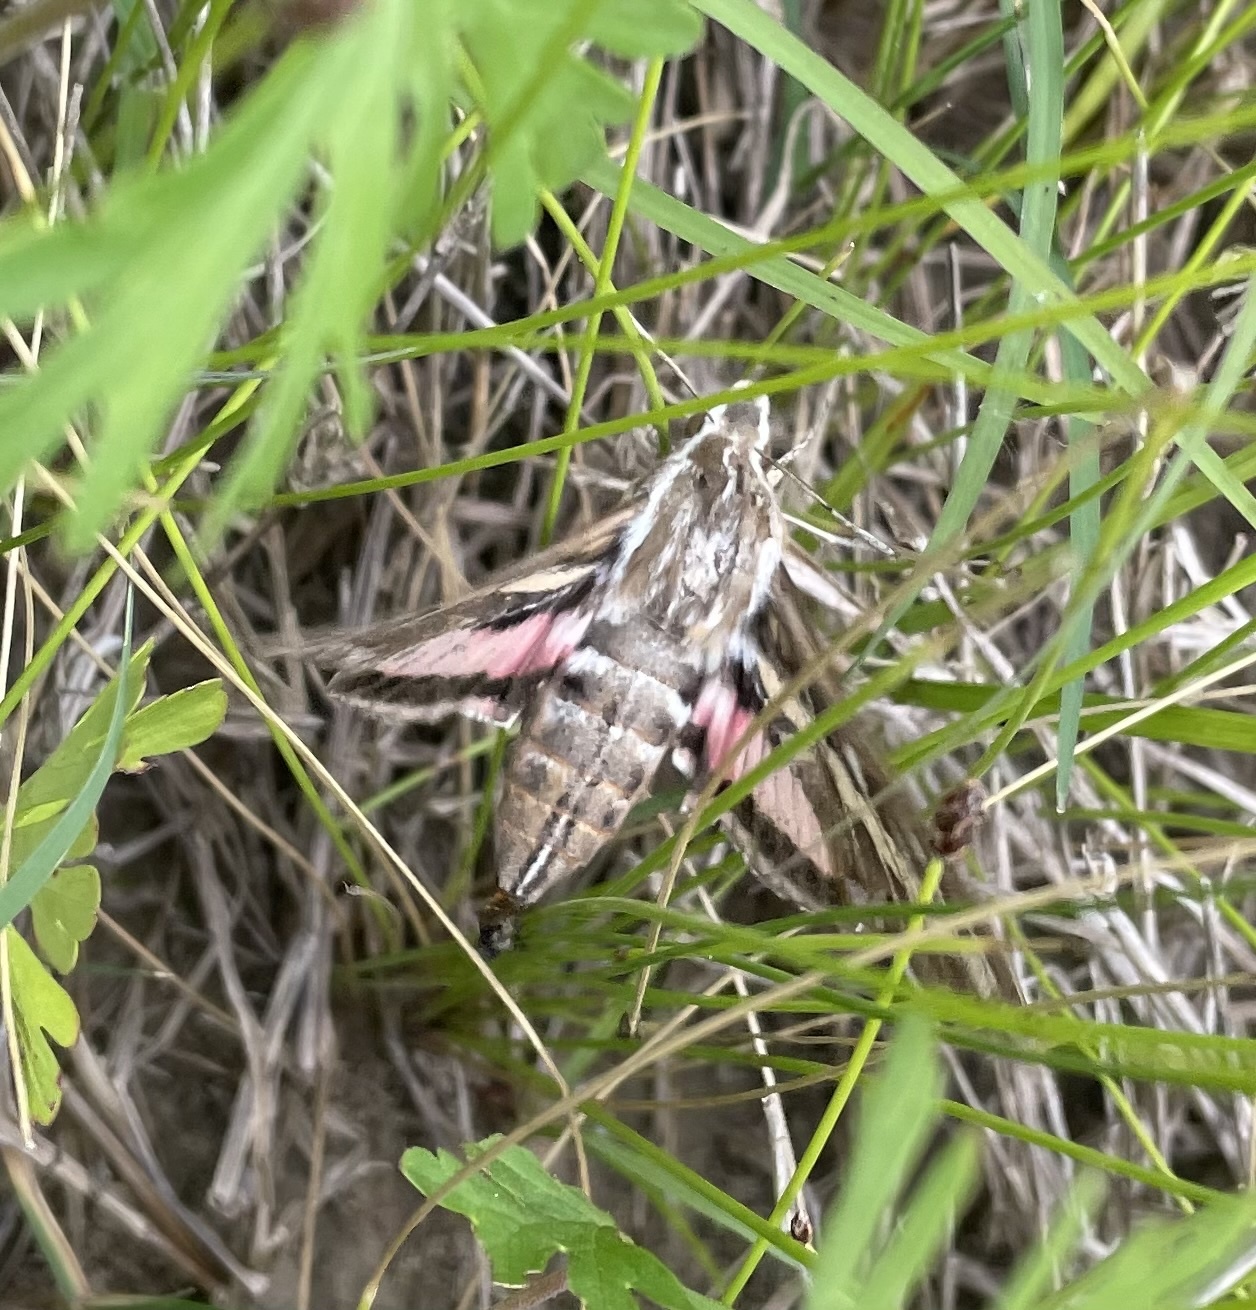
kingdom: Animalia
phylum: Arthropoda
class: Insecta
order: Lepidoptera
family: Sphingidae
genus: Hyles
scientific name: Hyles lineata
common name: White-lined sphinx
